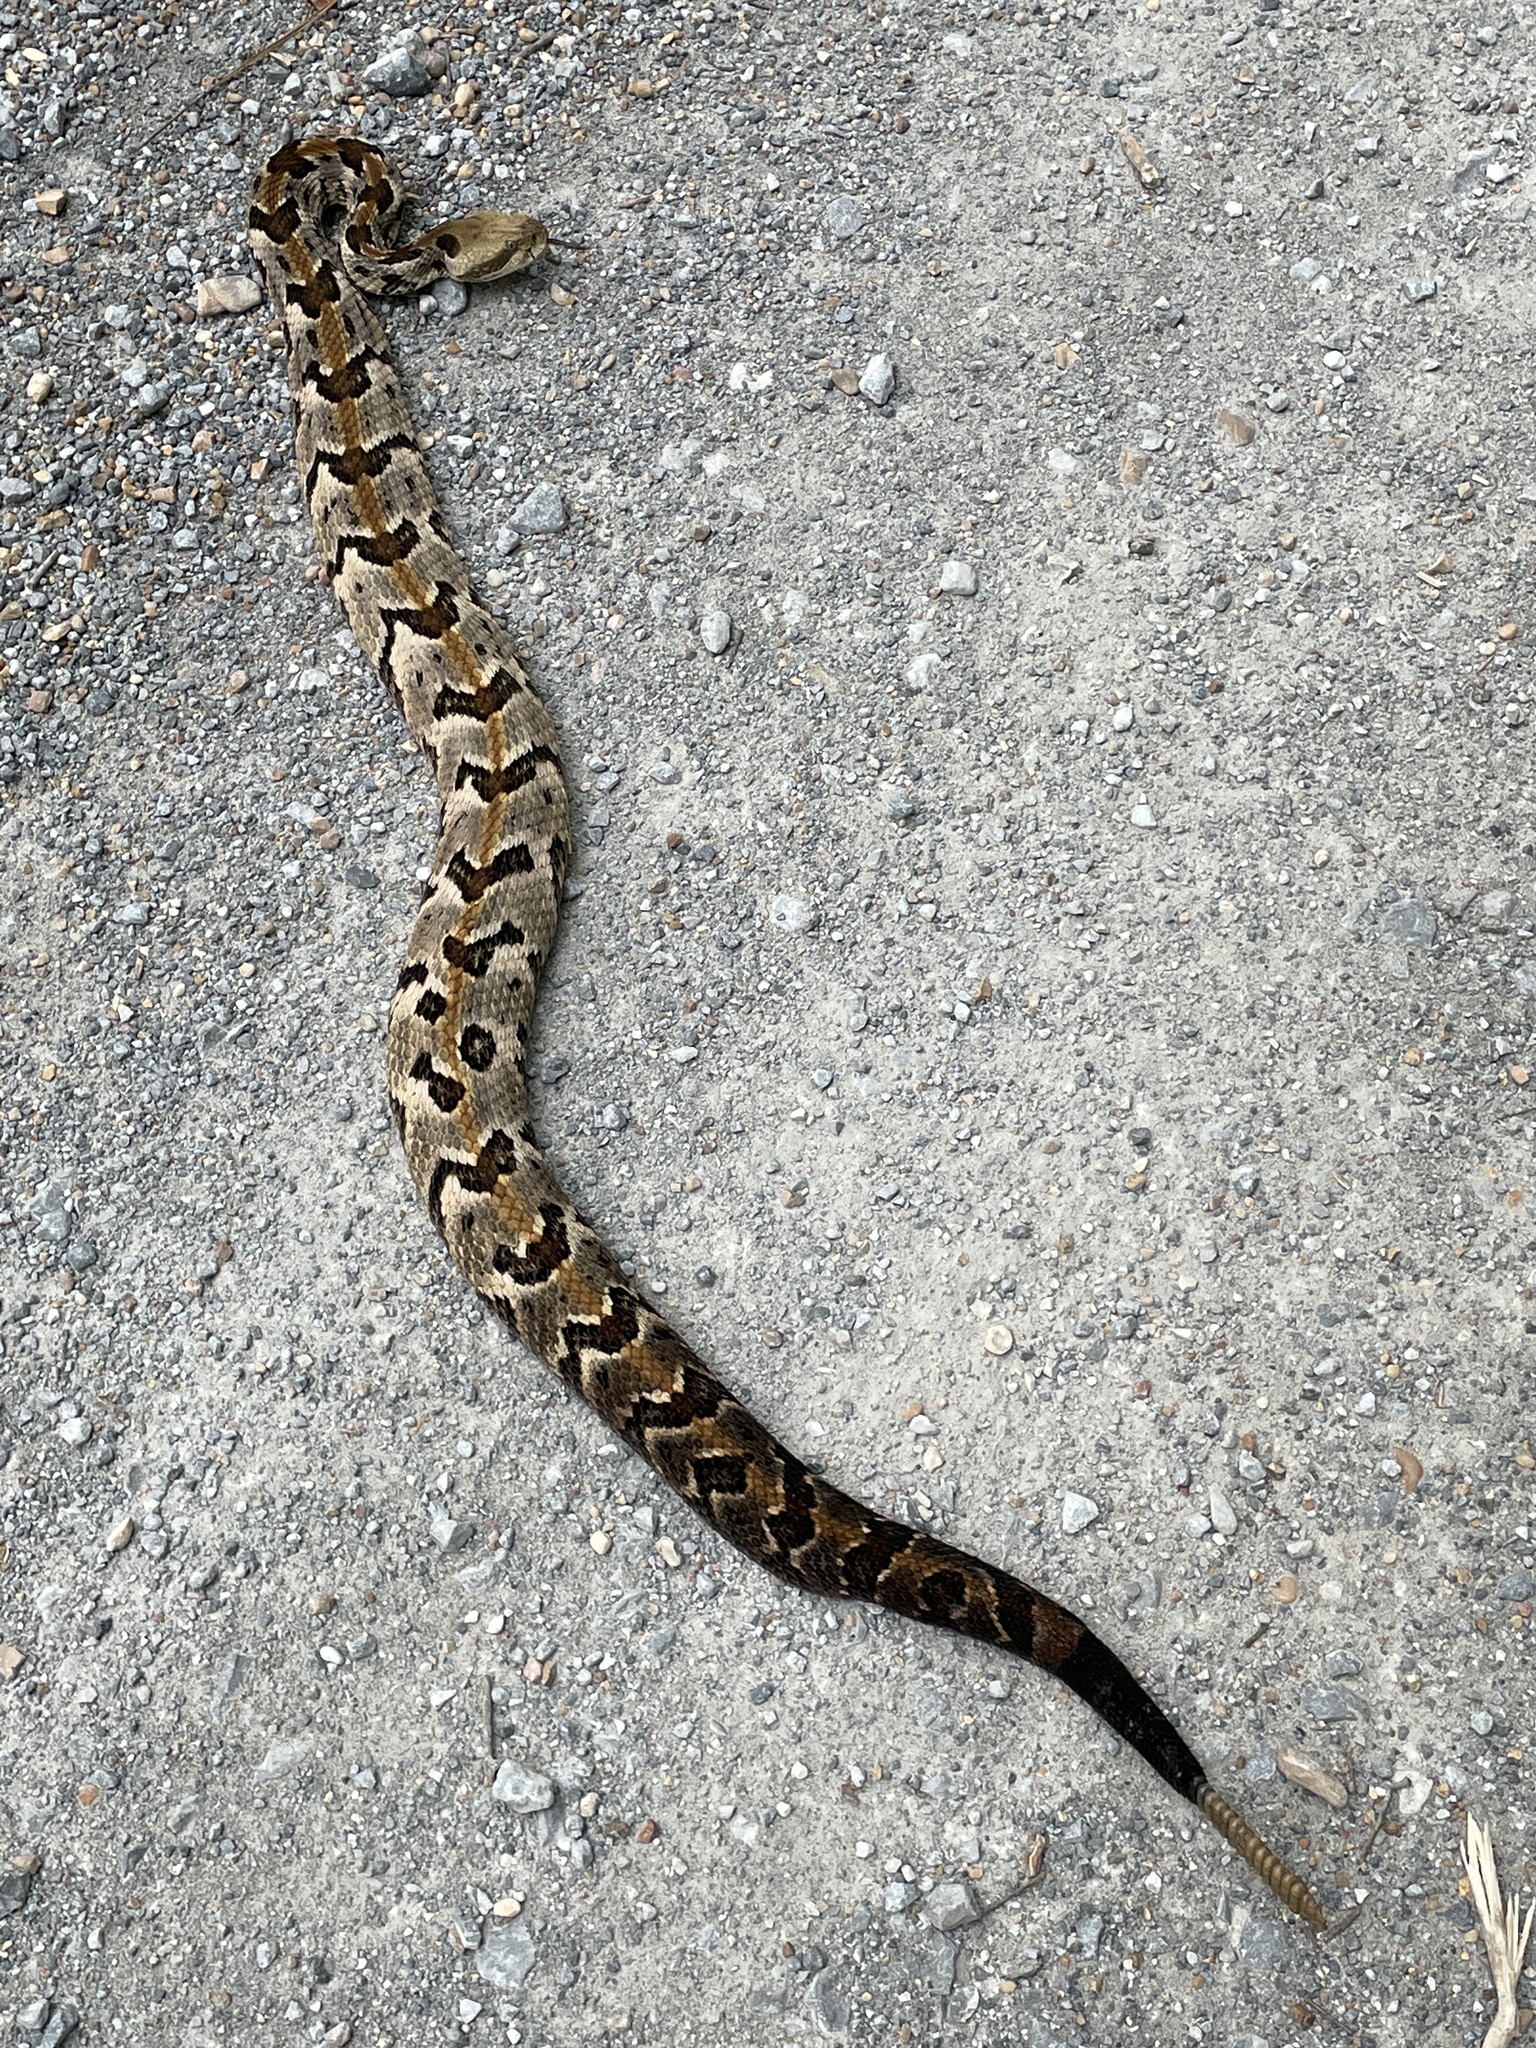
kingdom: Animalia
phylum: Chordata
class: Squamata
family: Viperidae
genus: Crotalus
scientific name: Crotalus horridus
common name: Timber rattlesnake
